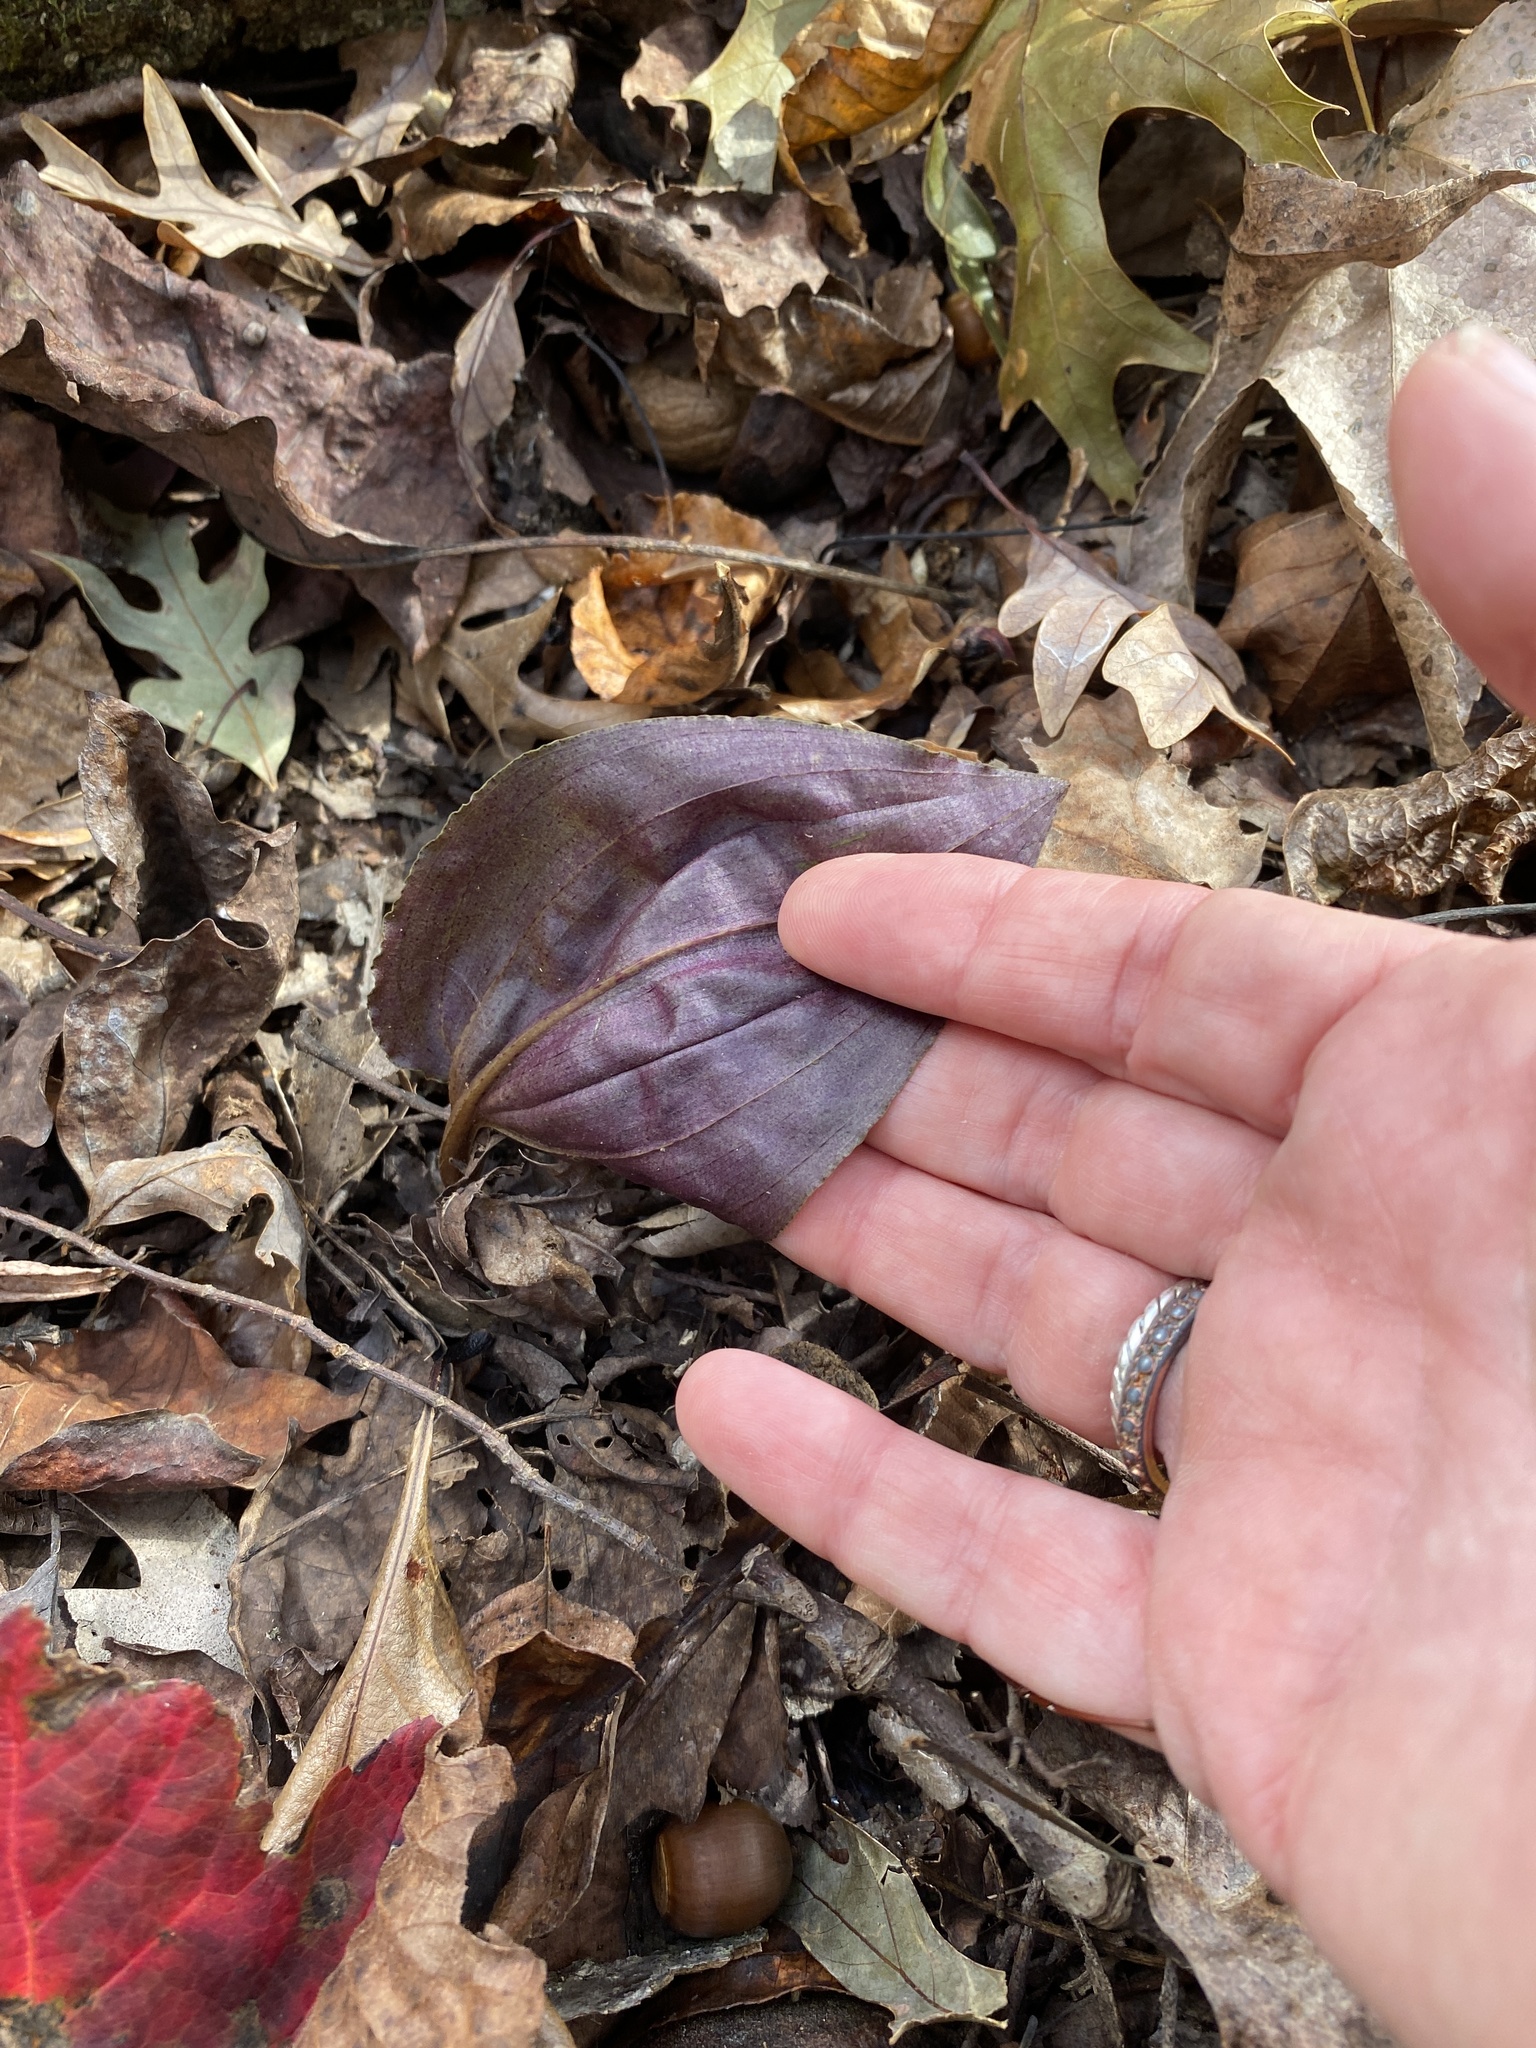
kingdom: Plantae
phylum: Tracheophyta
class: Liliopsida
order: Asparagales
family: Orchidaceae
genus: Tipularia
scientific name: Tipularia discolor
